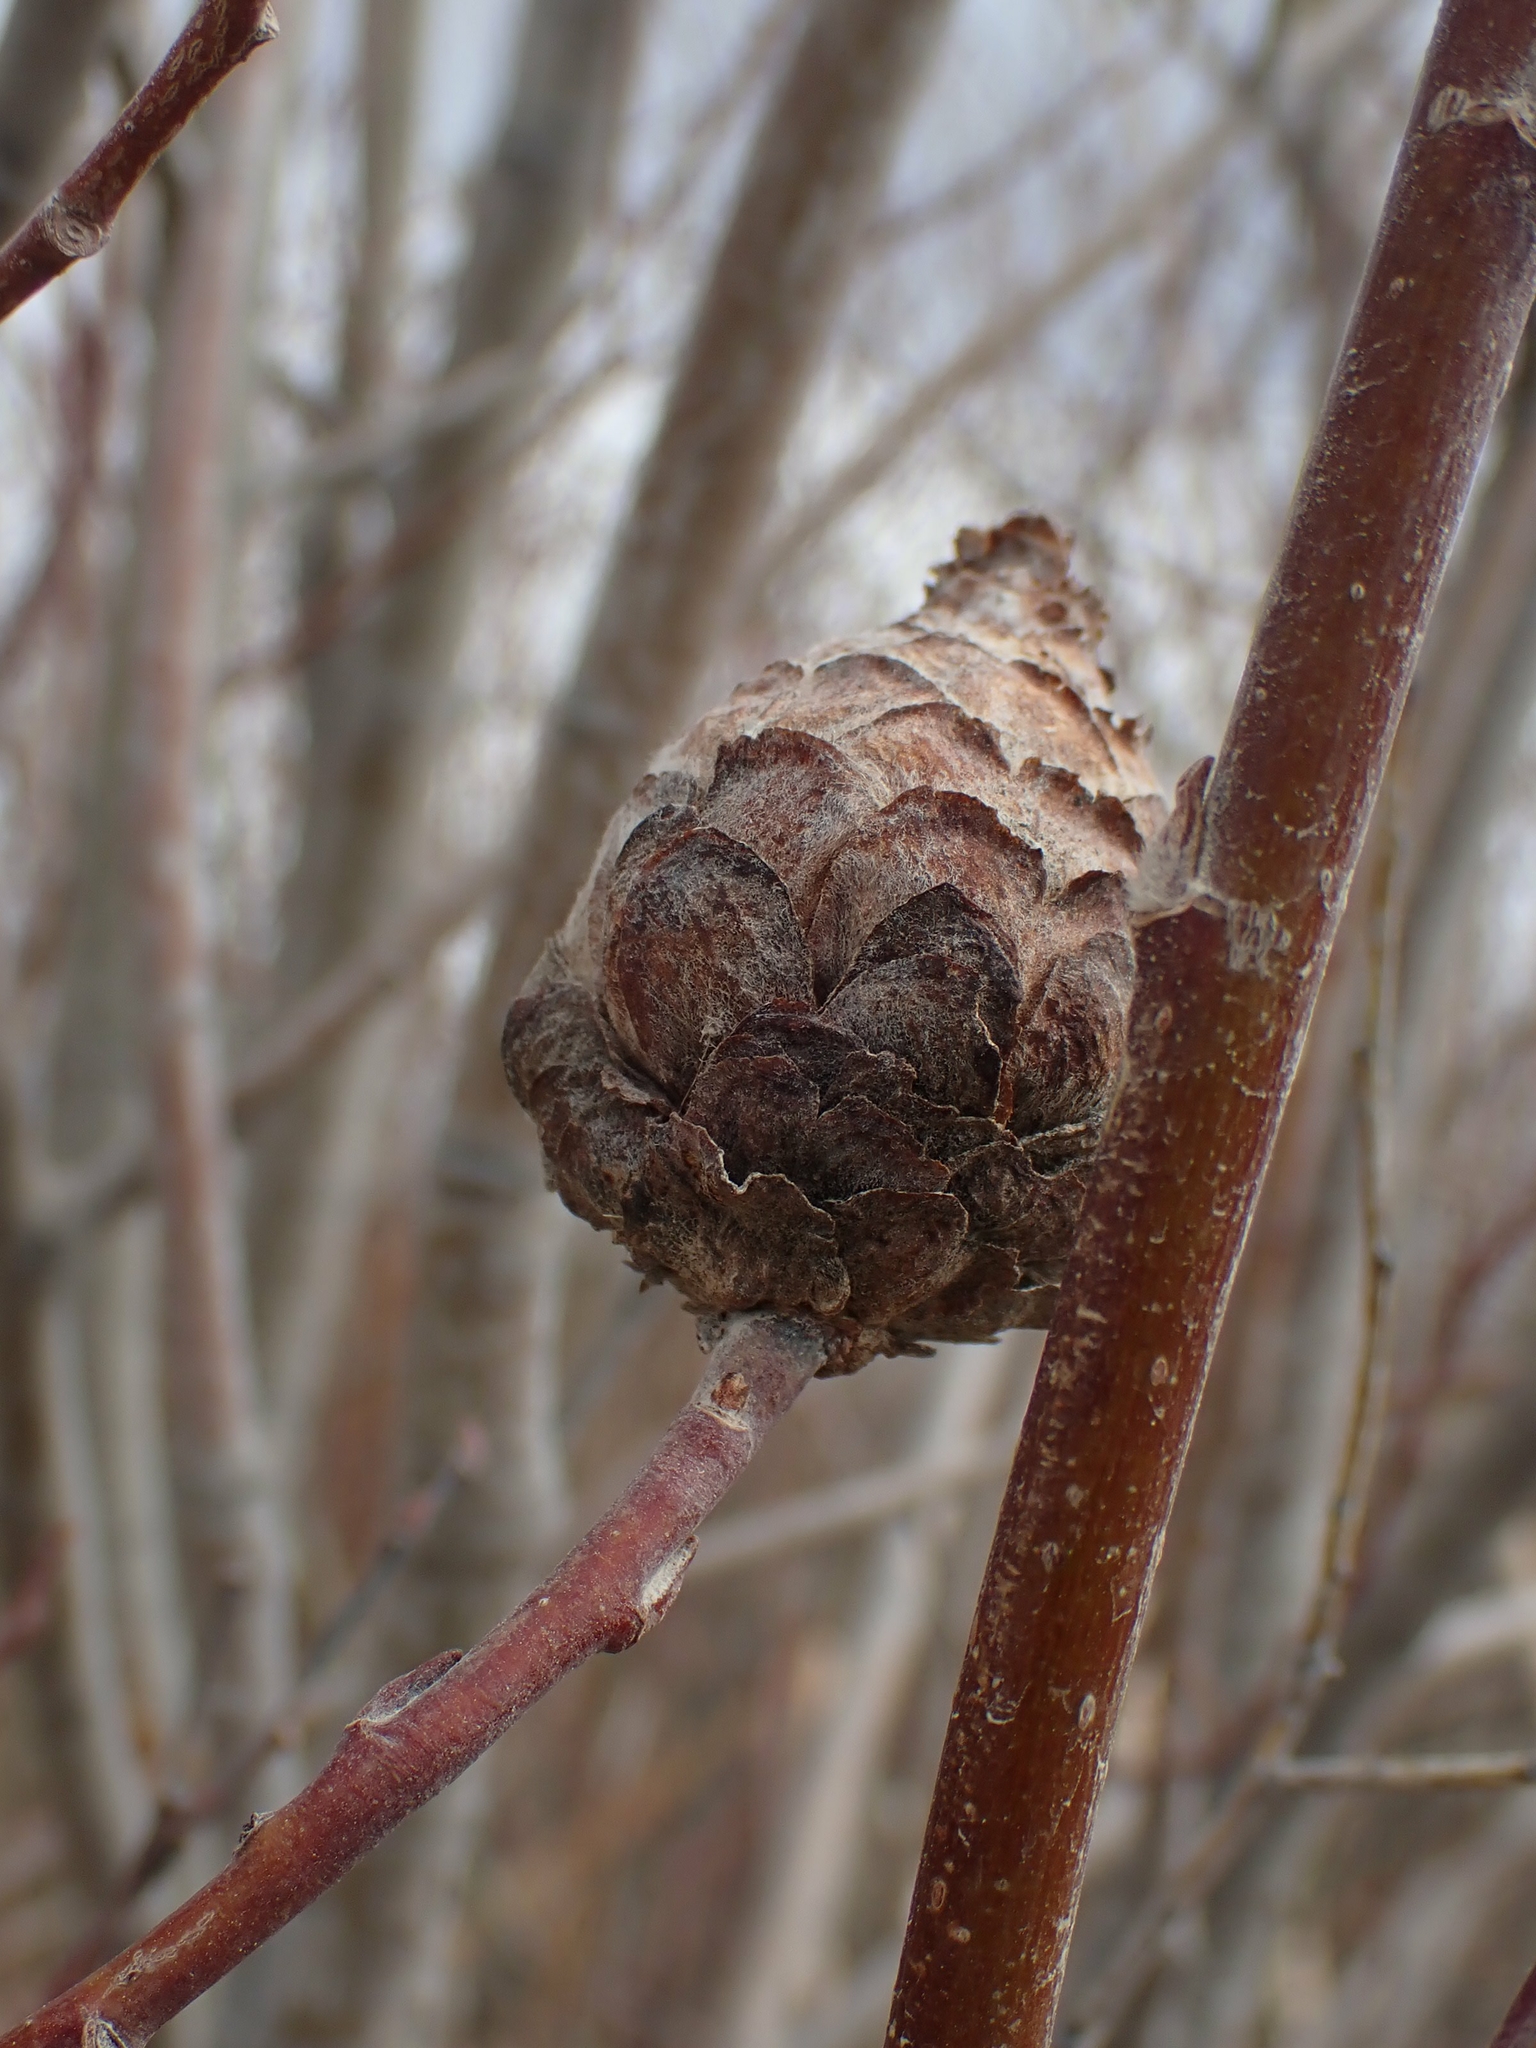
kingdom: Animalia
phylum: Arthropoda
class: Insecta
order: Diptera
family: Cecidomyiidae
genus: Rabdophaga
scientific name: Rabdophaga strobiloides
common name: Willow pinecone gall midge
